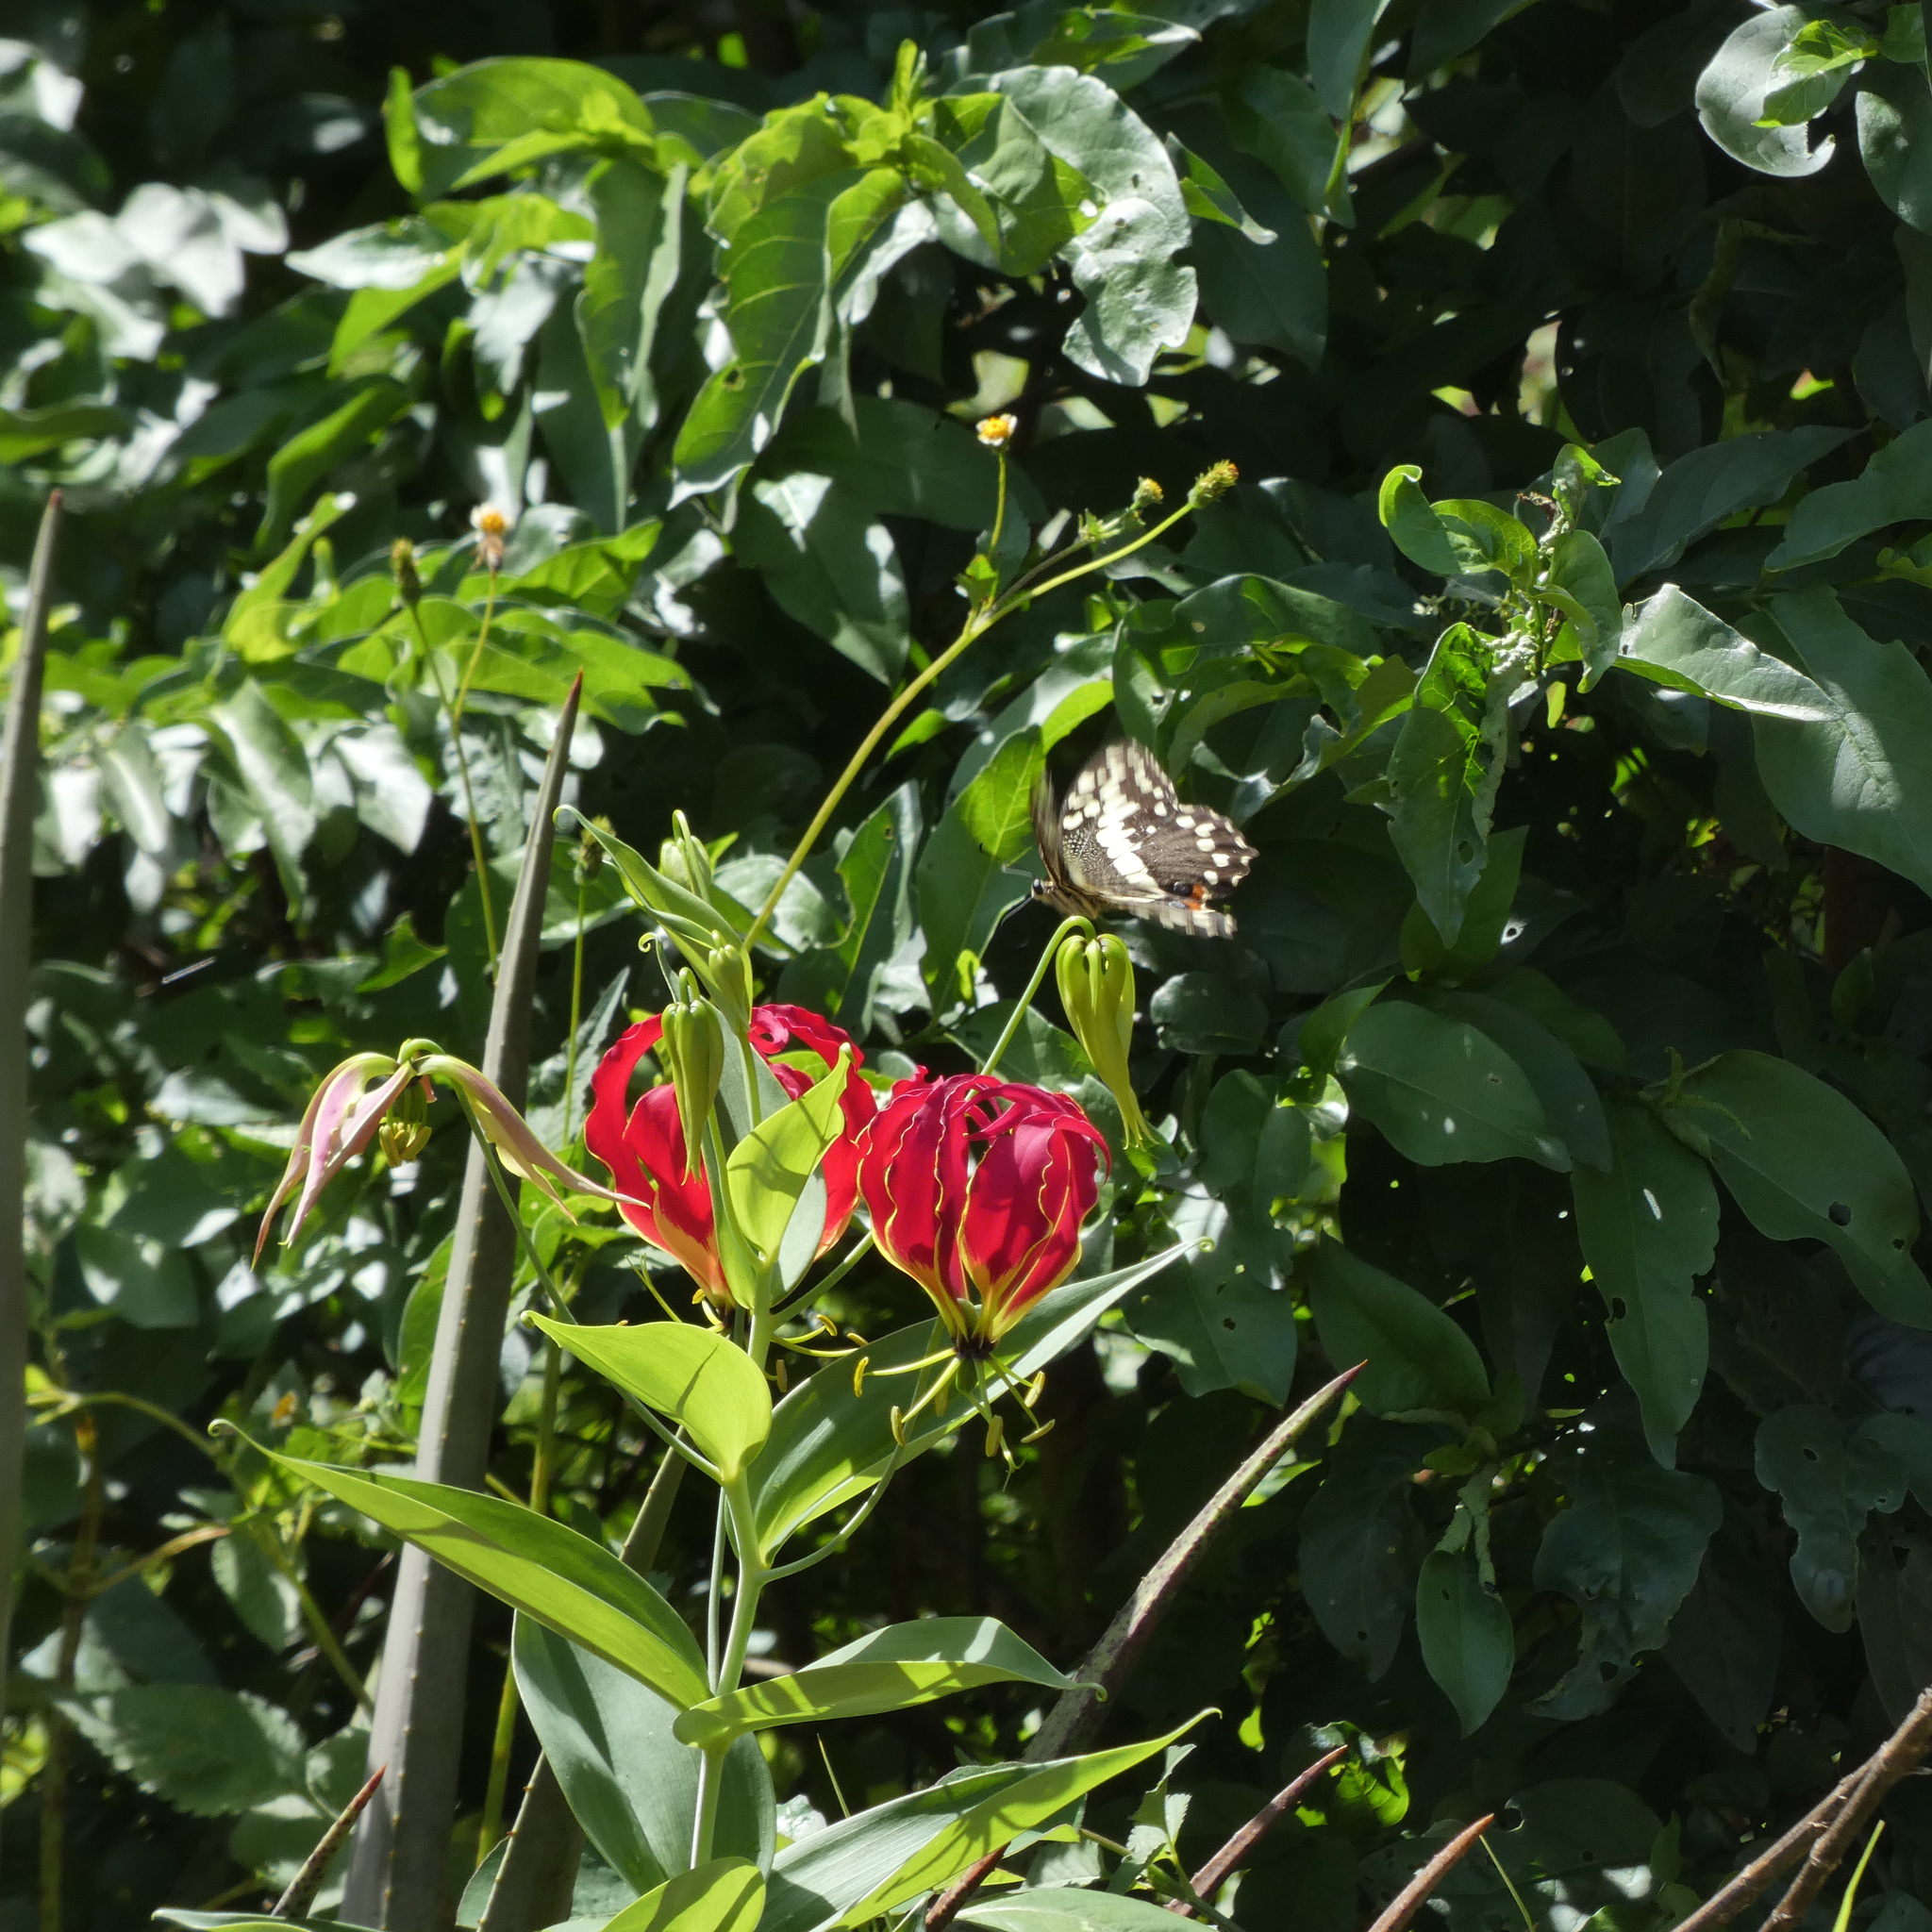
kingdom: Plantae
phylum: Tracheophyta
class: Liliopsida
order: Liliales
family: Colchicaceae
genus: Gloriosa
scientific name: Gloriosa superba
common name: Flame lily
